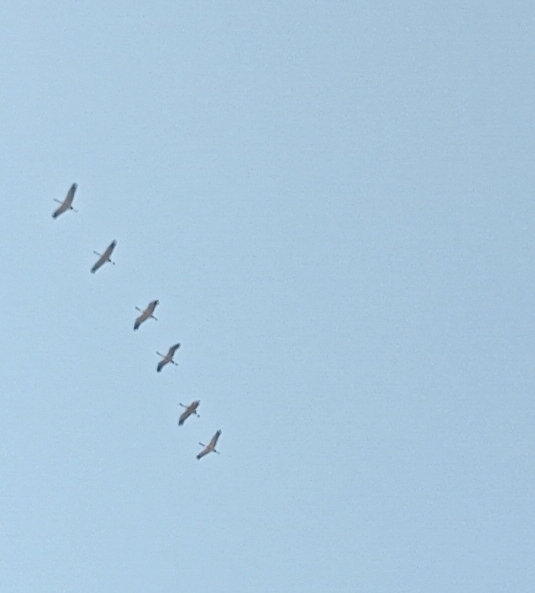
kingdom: Animalia
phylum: Chordata
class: Aves
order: Gruiformes
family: Gruidae
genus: Grus
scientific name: Grus grus
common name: Common crane
